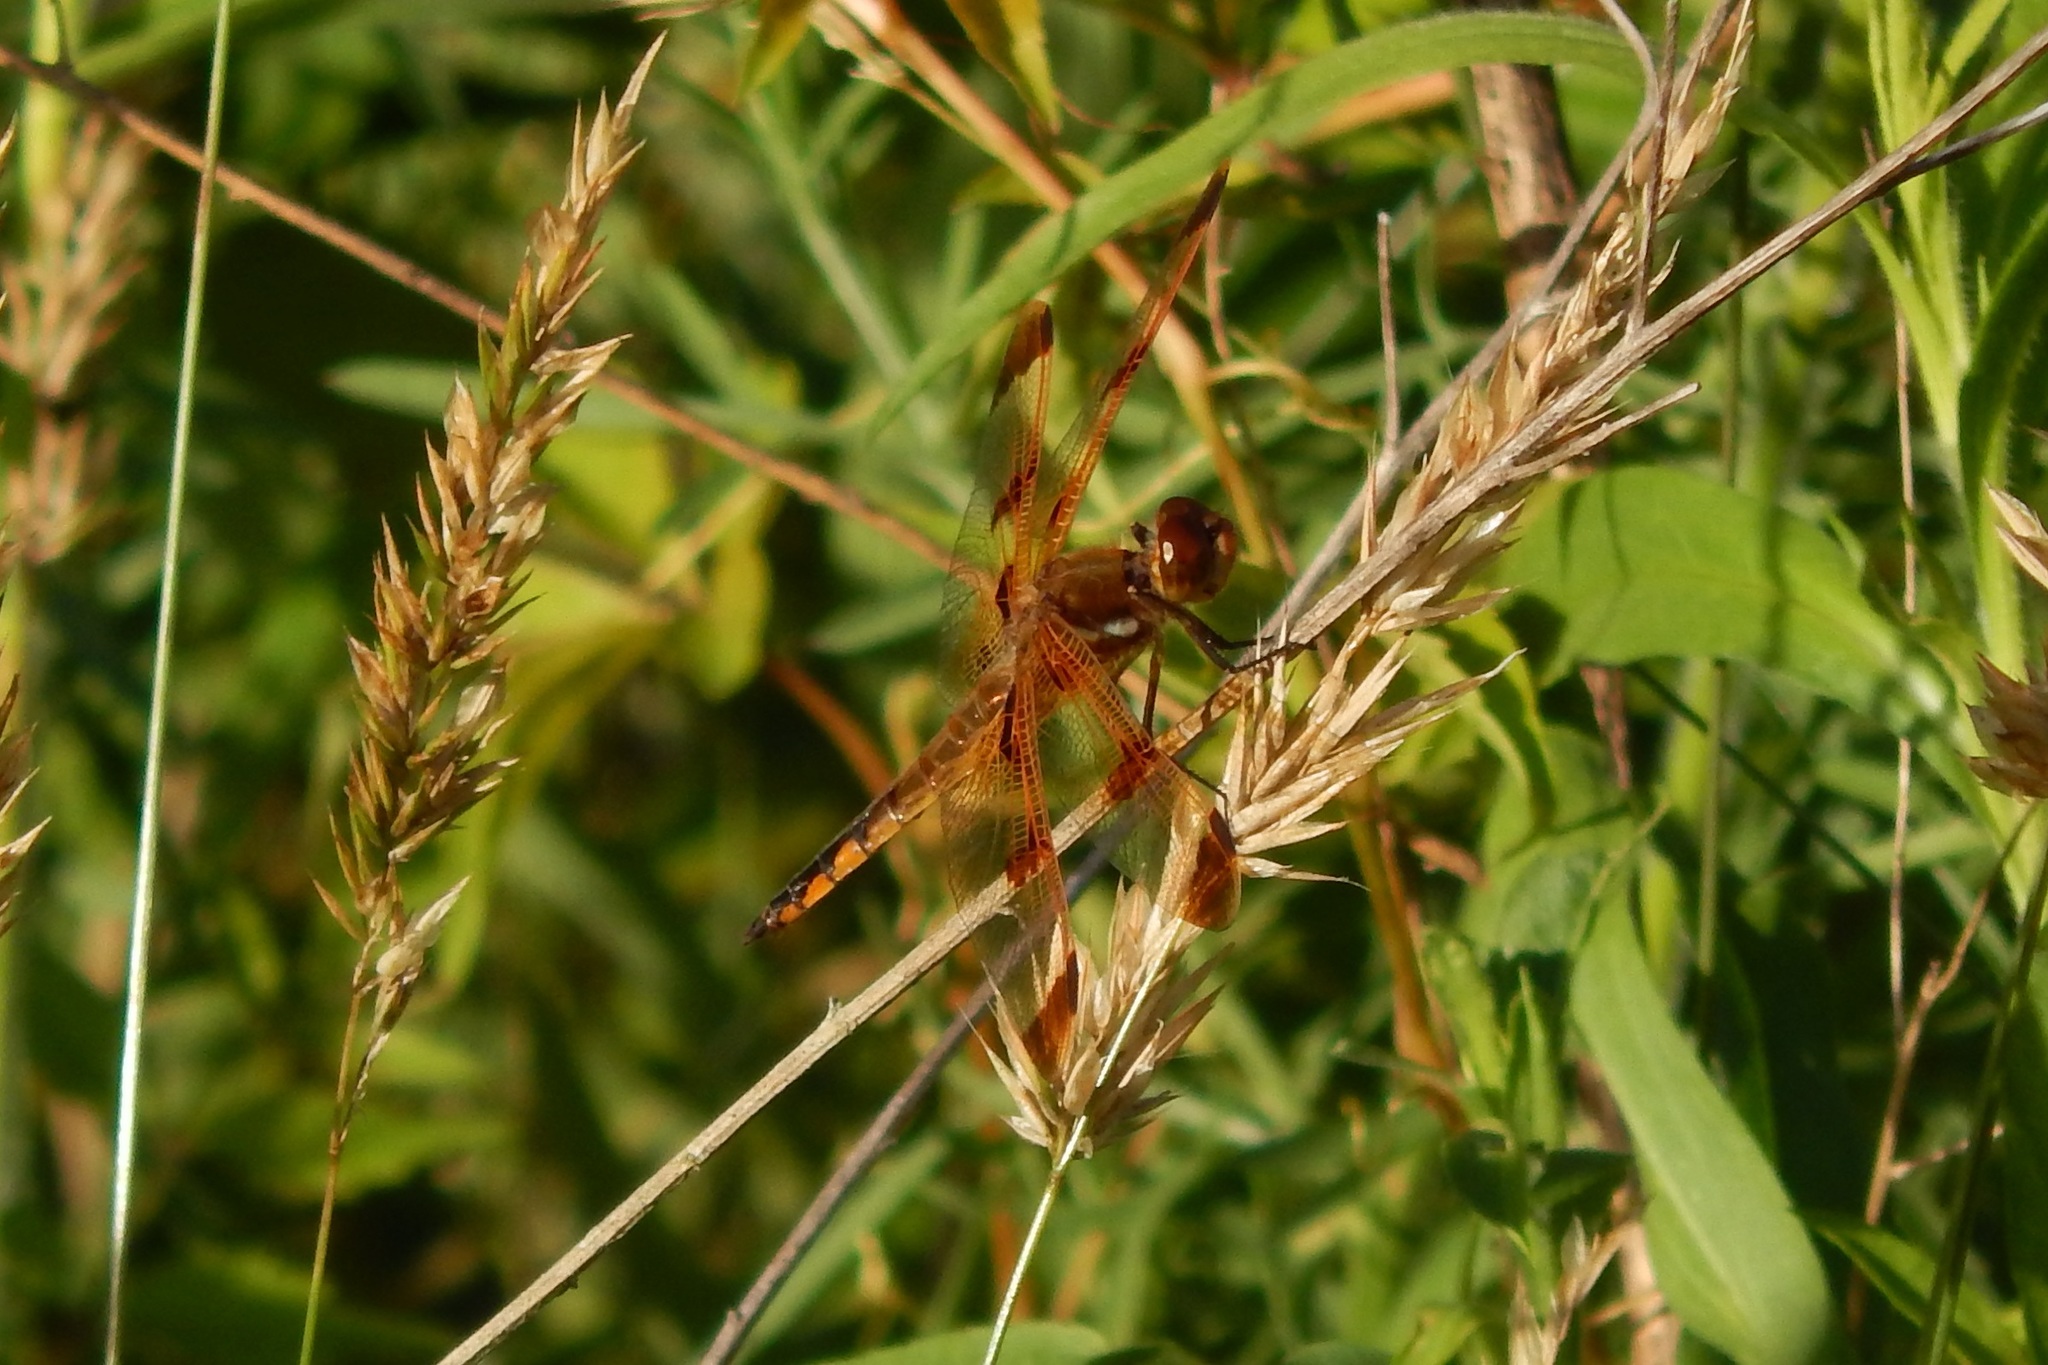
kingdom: Animalia
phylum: Arthropoda
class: Insecta
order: Odonata
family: Libellulidae
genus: Libellula
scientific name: Libellula semifasciata
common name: Painted skimmer
